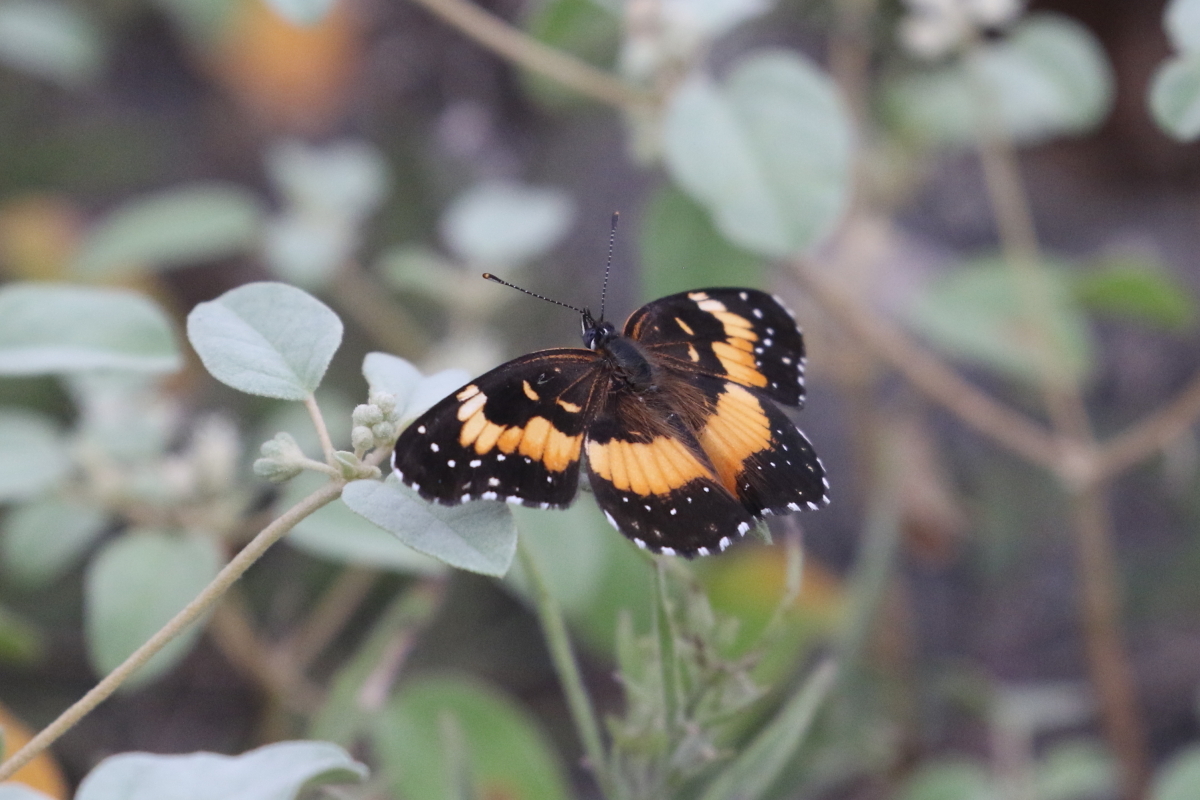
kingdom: Animalia
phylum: Arthropoda
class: Insecta
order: Lepidoptera
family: Nymphalidae
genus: Chlosyne
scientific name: Chlosyne lacinia
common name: Bordered patch
